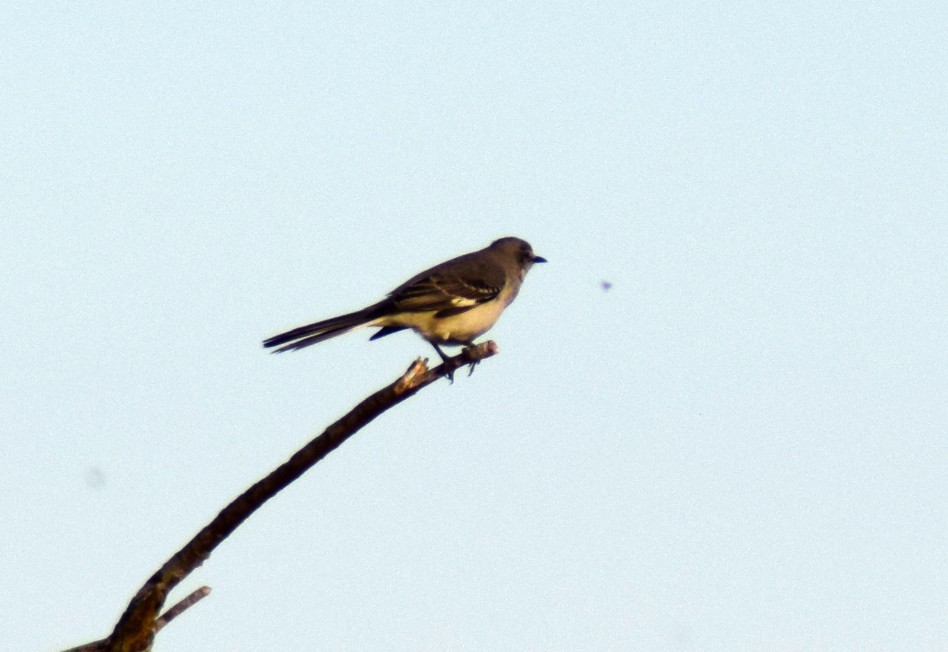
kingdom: Animalia
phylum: Chordata
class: Aves
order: Passeriformes
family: Mimidae
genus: Mimus
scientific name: Mimus polyglottos
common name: Northern mockingbird
